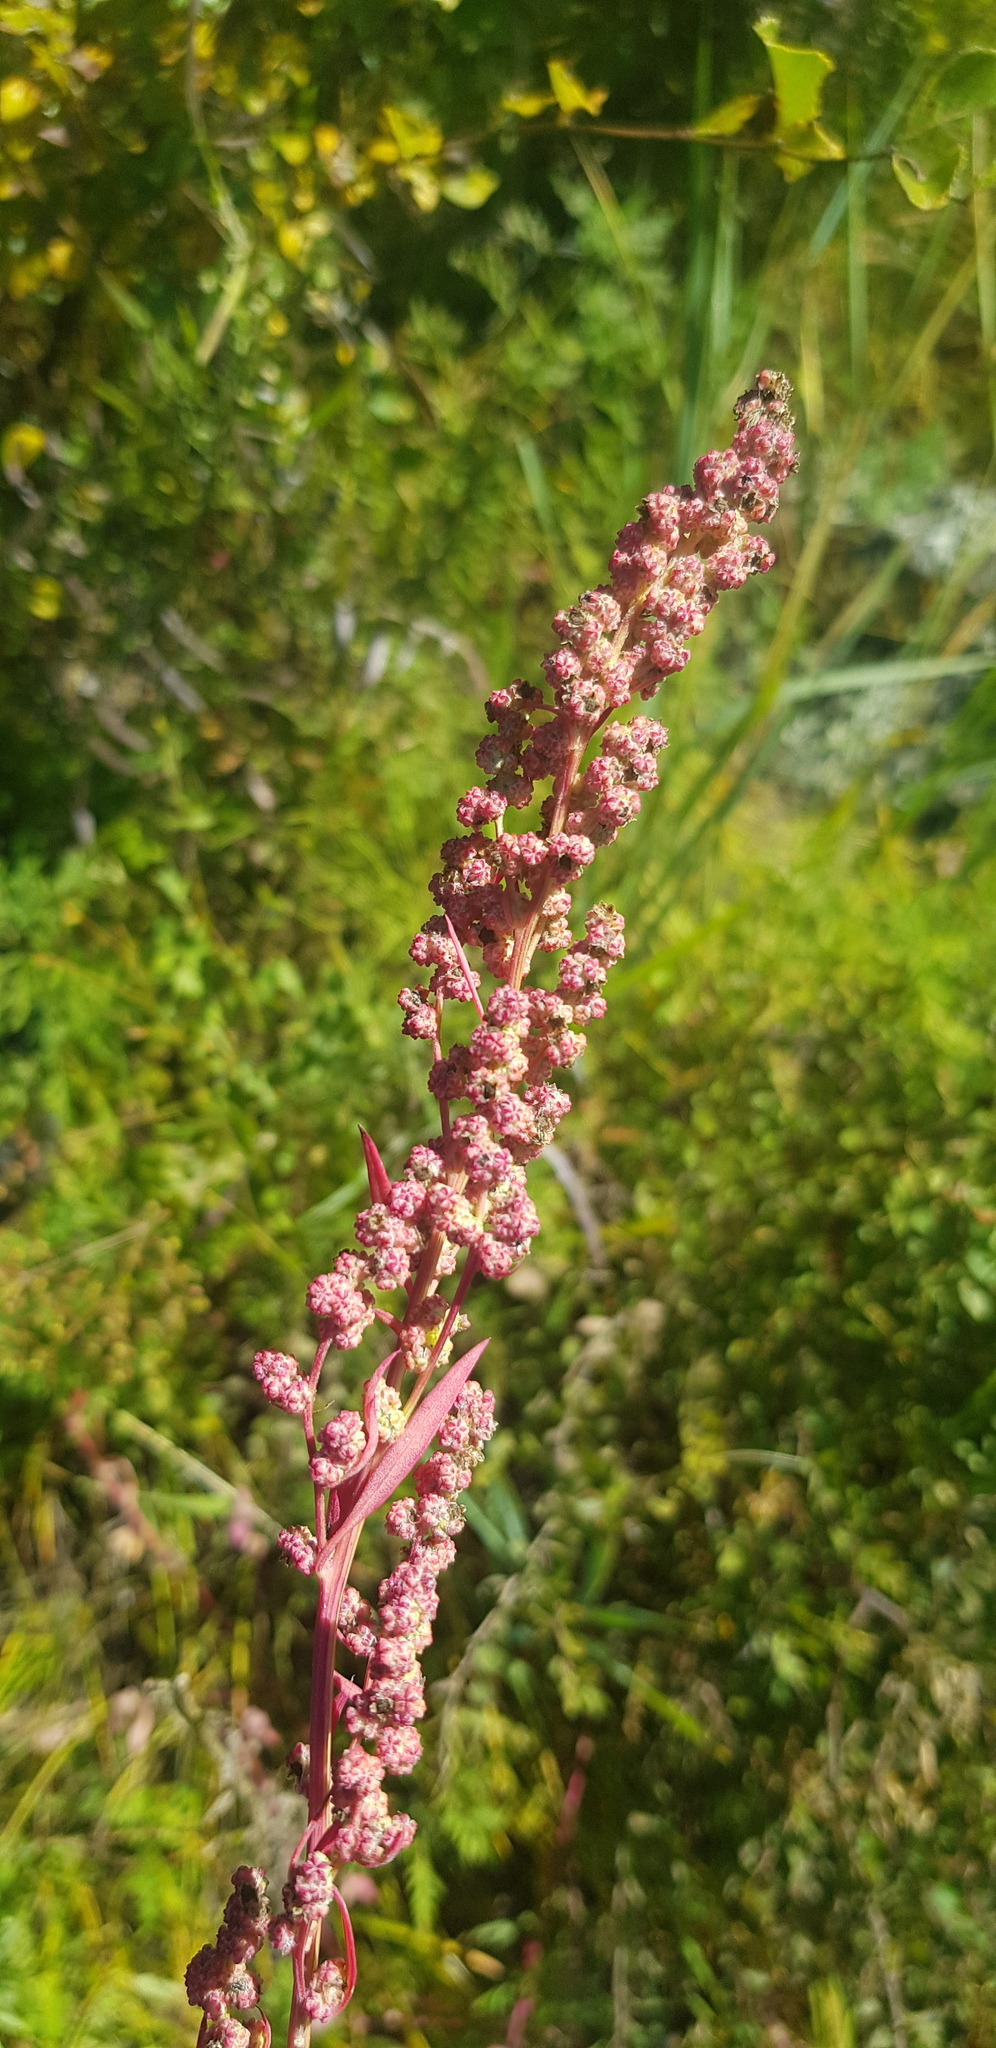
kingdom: Plantae
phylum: Tracheophyta
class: Magnoliopsida
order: Caryophyllales
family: Amaranthaceae
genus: Chenopodium
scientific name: Chenopodium album
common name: Fat-hen
